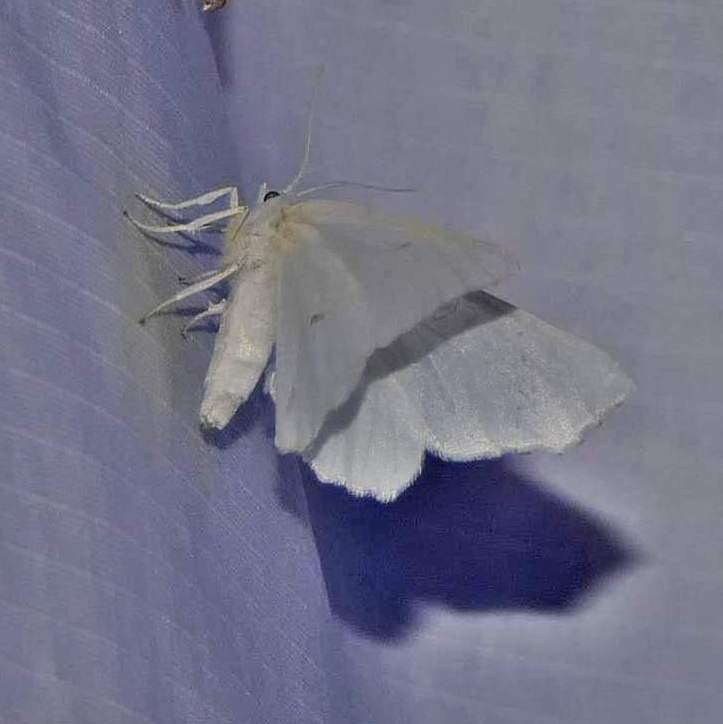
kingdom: Animalia
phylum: Arthropoda
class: Insecta
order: Lepidoptera
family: Geometridae
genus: Ennomos
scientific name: Ennomos subsignaria
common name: Elm spanworm
